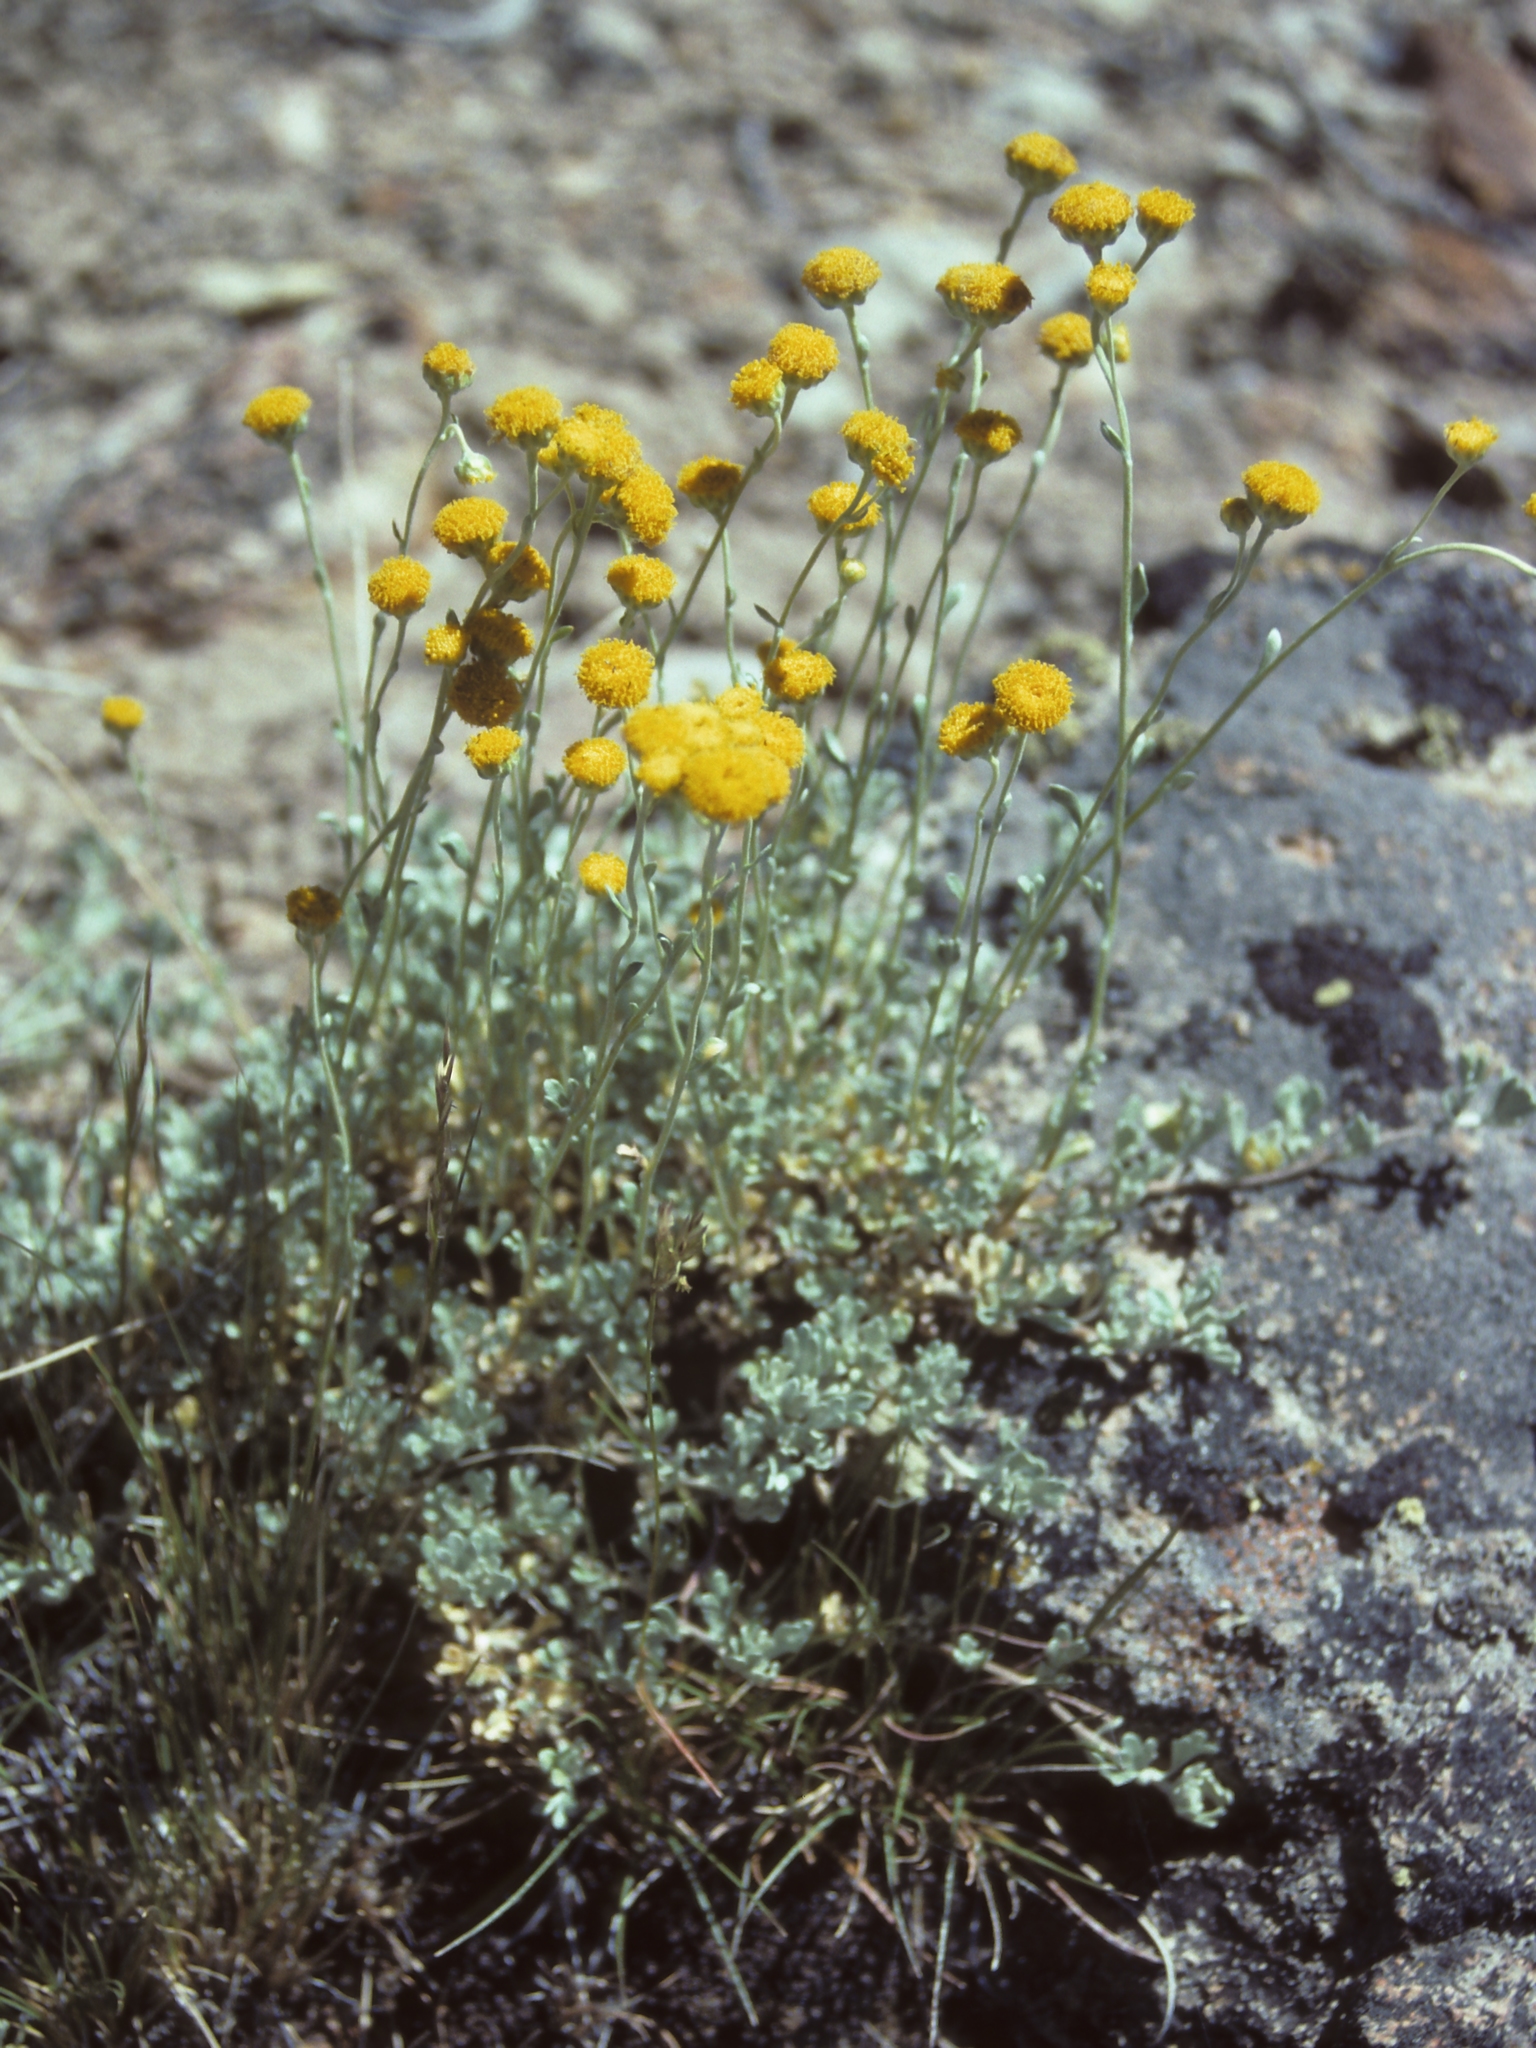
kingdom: Plantae
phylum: Tracheophyta
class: Magnoliopsida
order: Asterales
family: Asteraceae
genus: Artemisia
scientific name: Artemisia nuttallii
